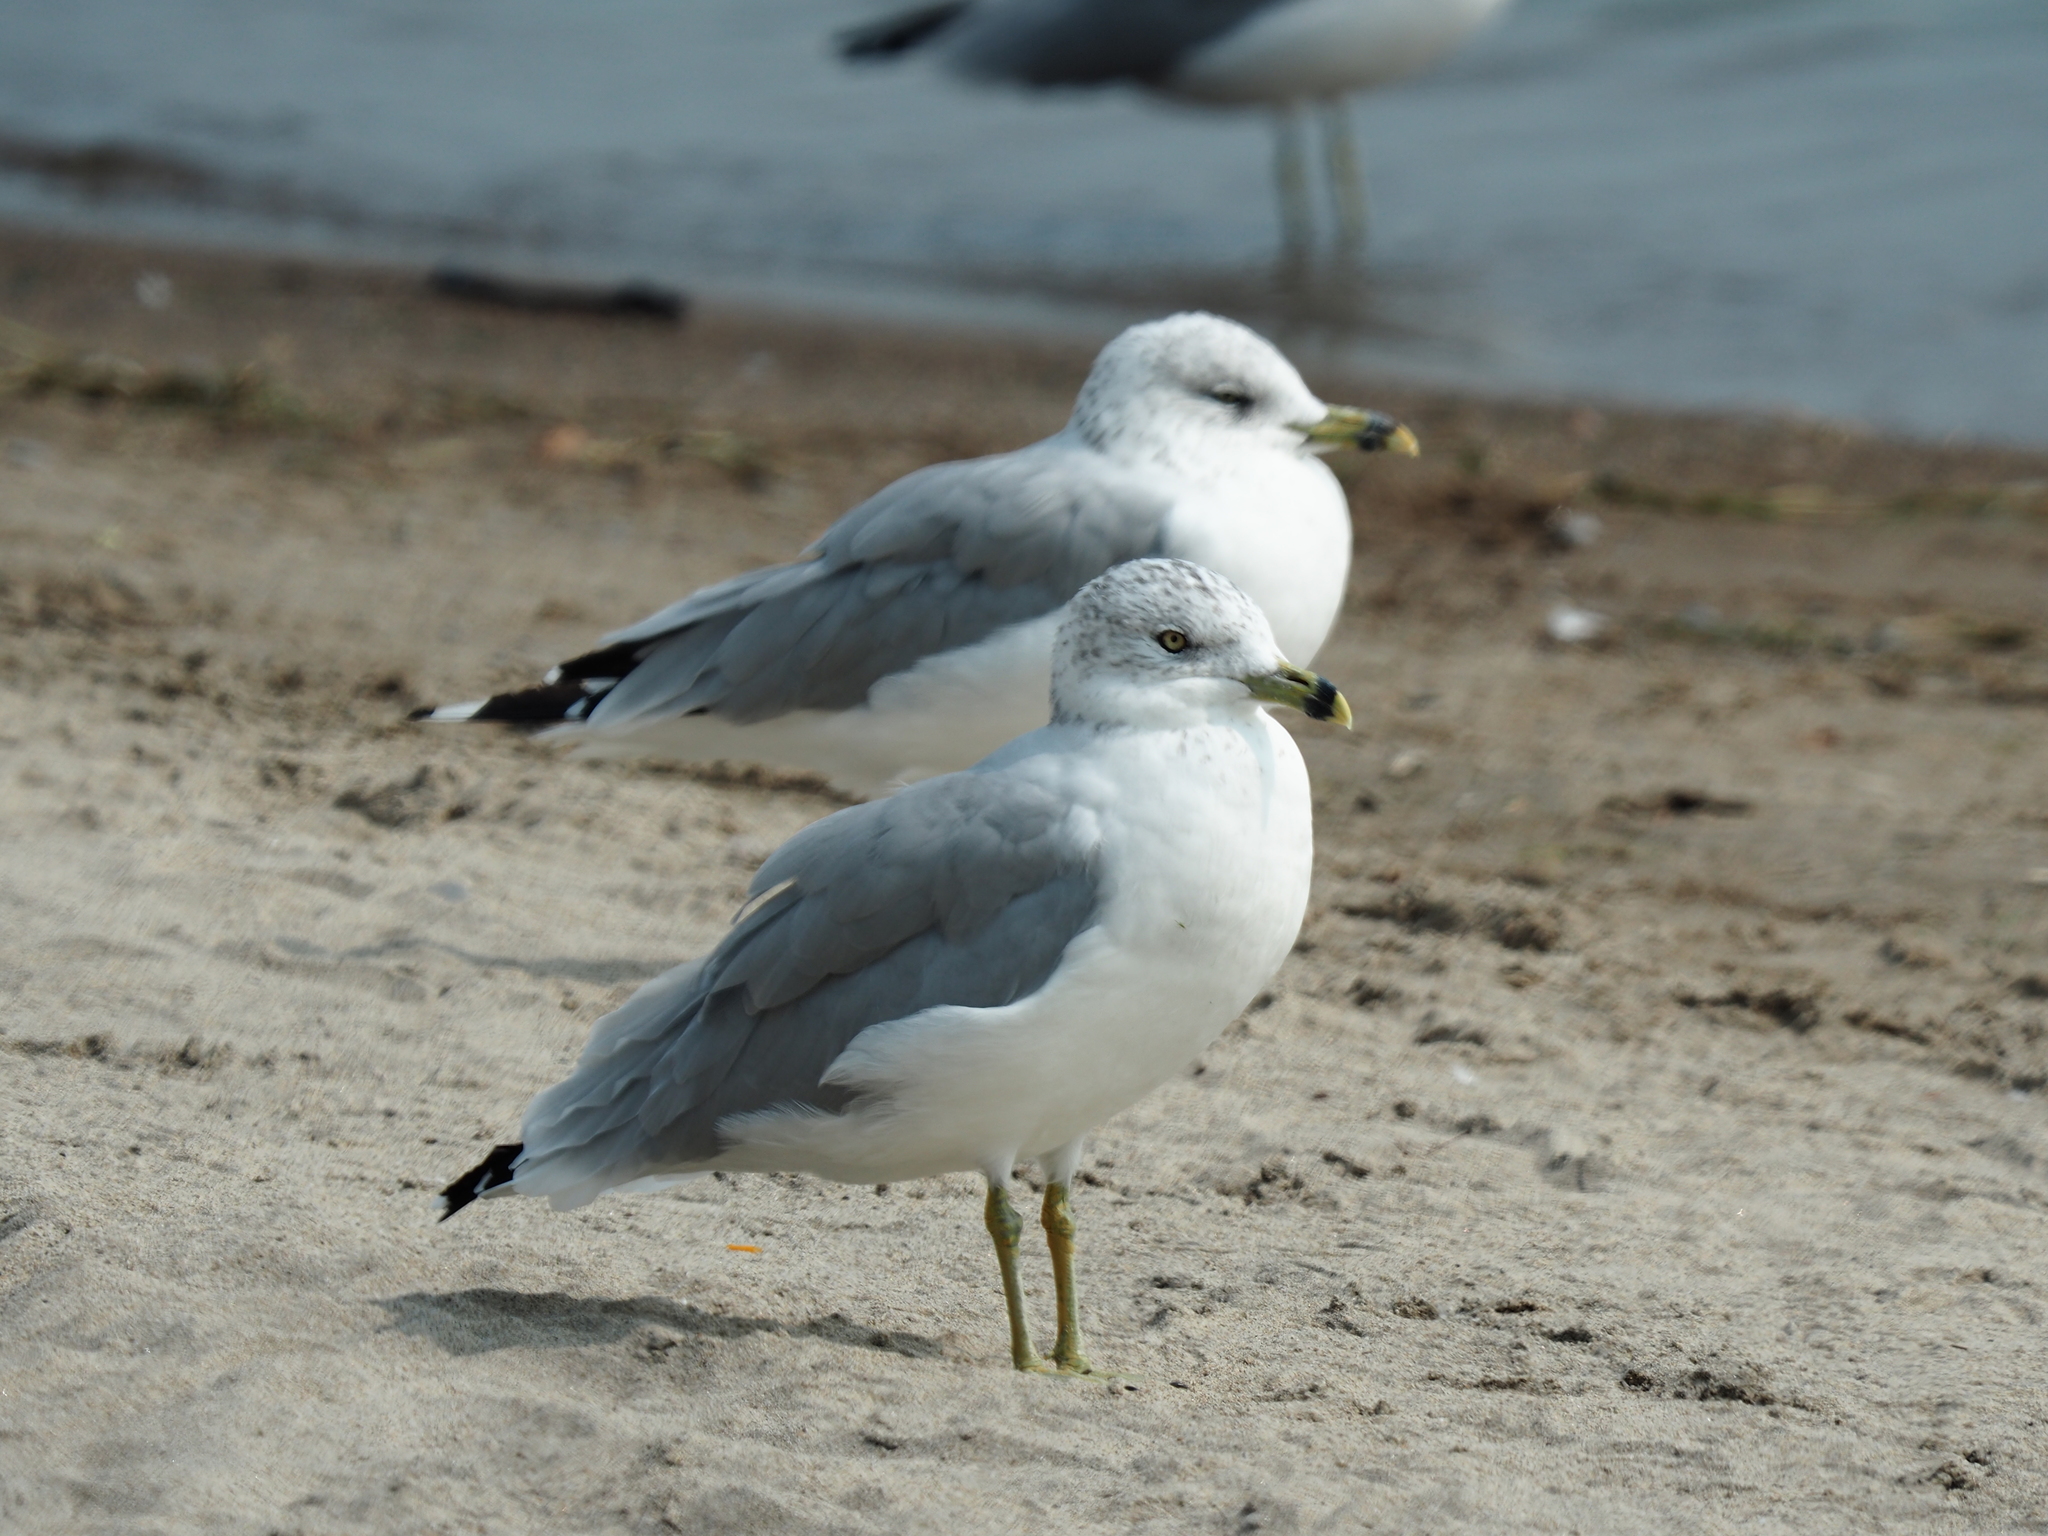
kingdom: Animalia
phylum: Chordata
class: Aves
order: Charadriiformes
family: Laridae
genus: Larus
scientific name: Larus delawarensis
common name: Ring-billed gull
